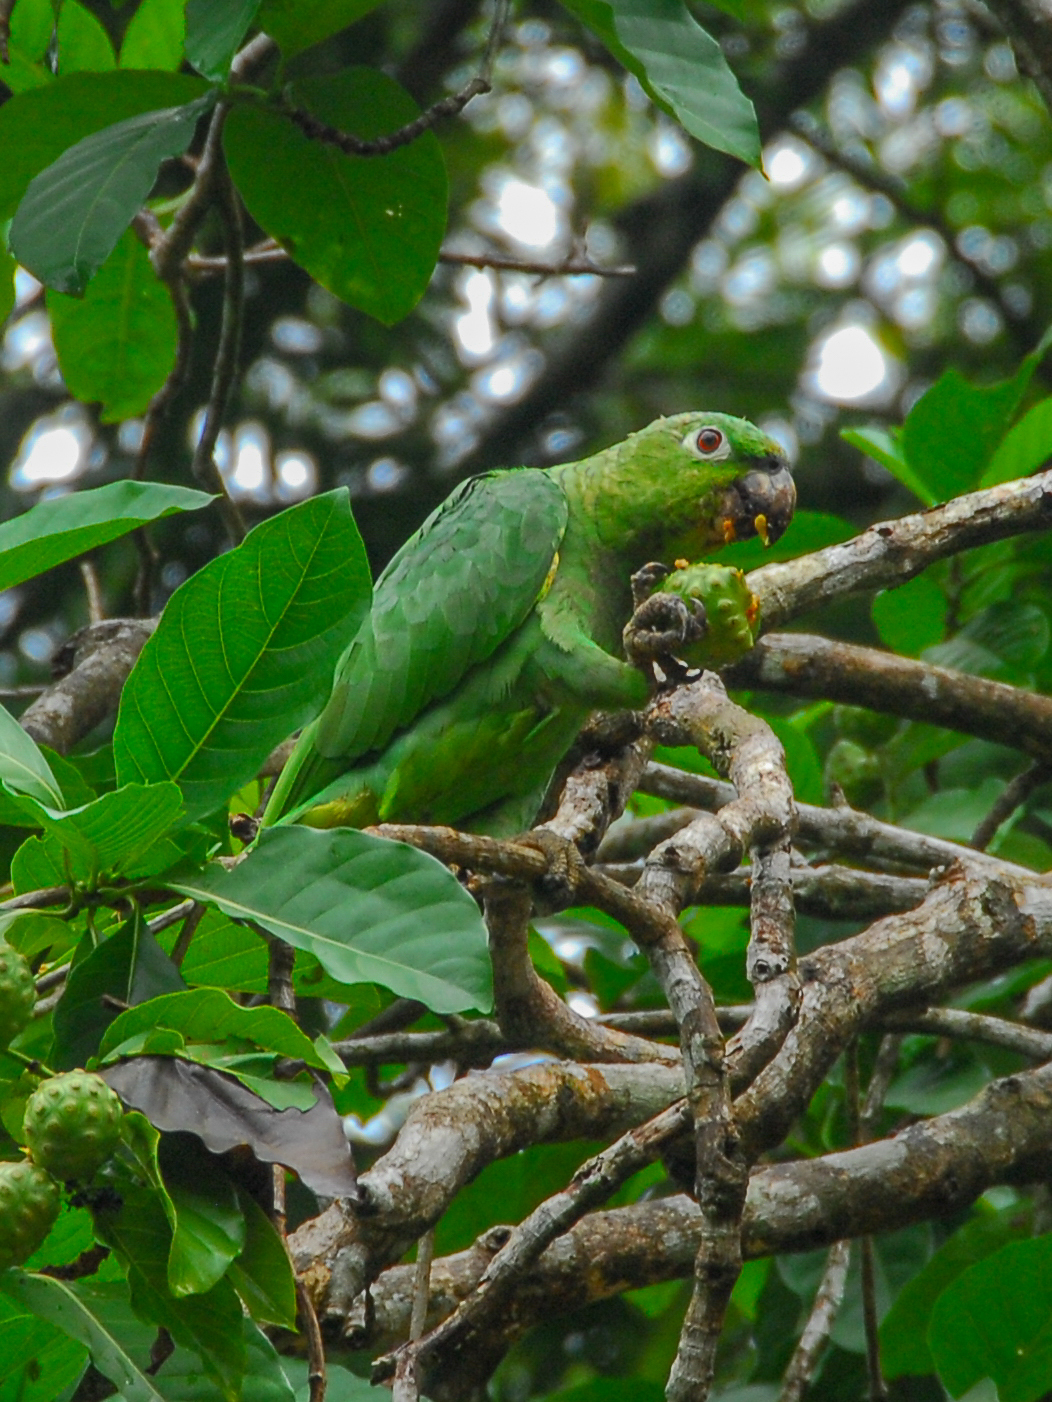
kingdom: Animalia
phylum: Chordata
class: Aves
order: Psittaciformes
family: Psittacidae
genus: Amazona
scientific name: Amazona farinosa
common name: Mealy parrot
